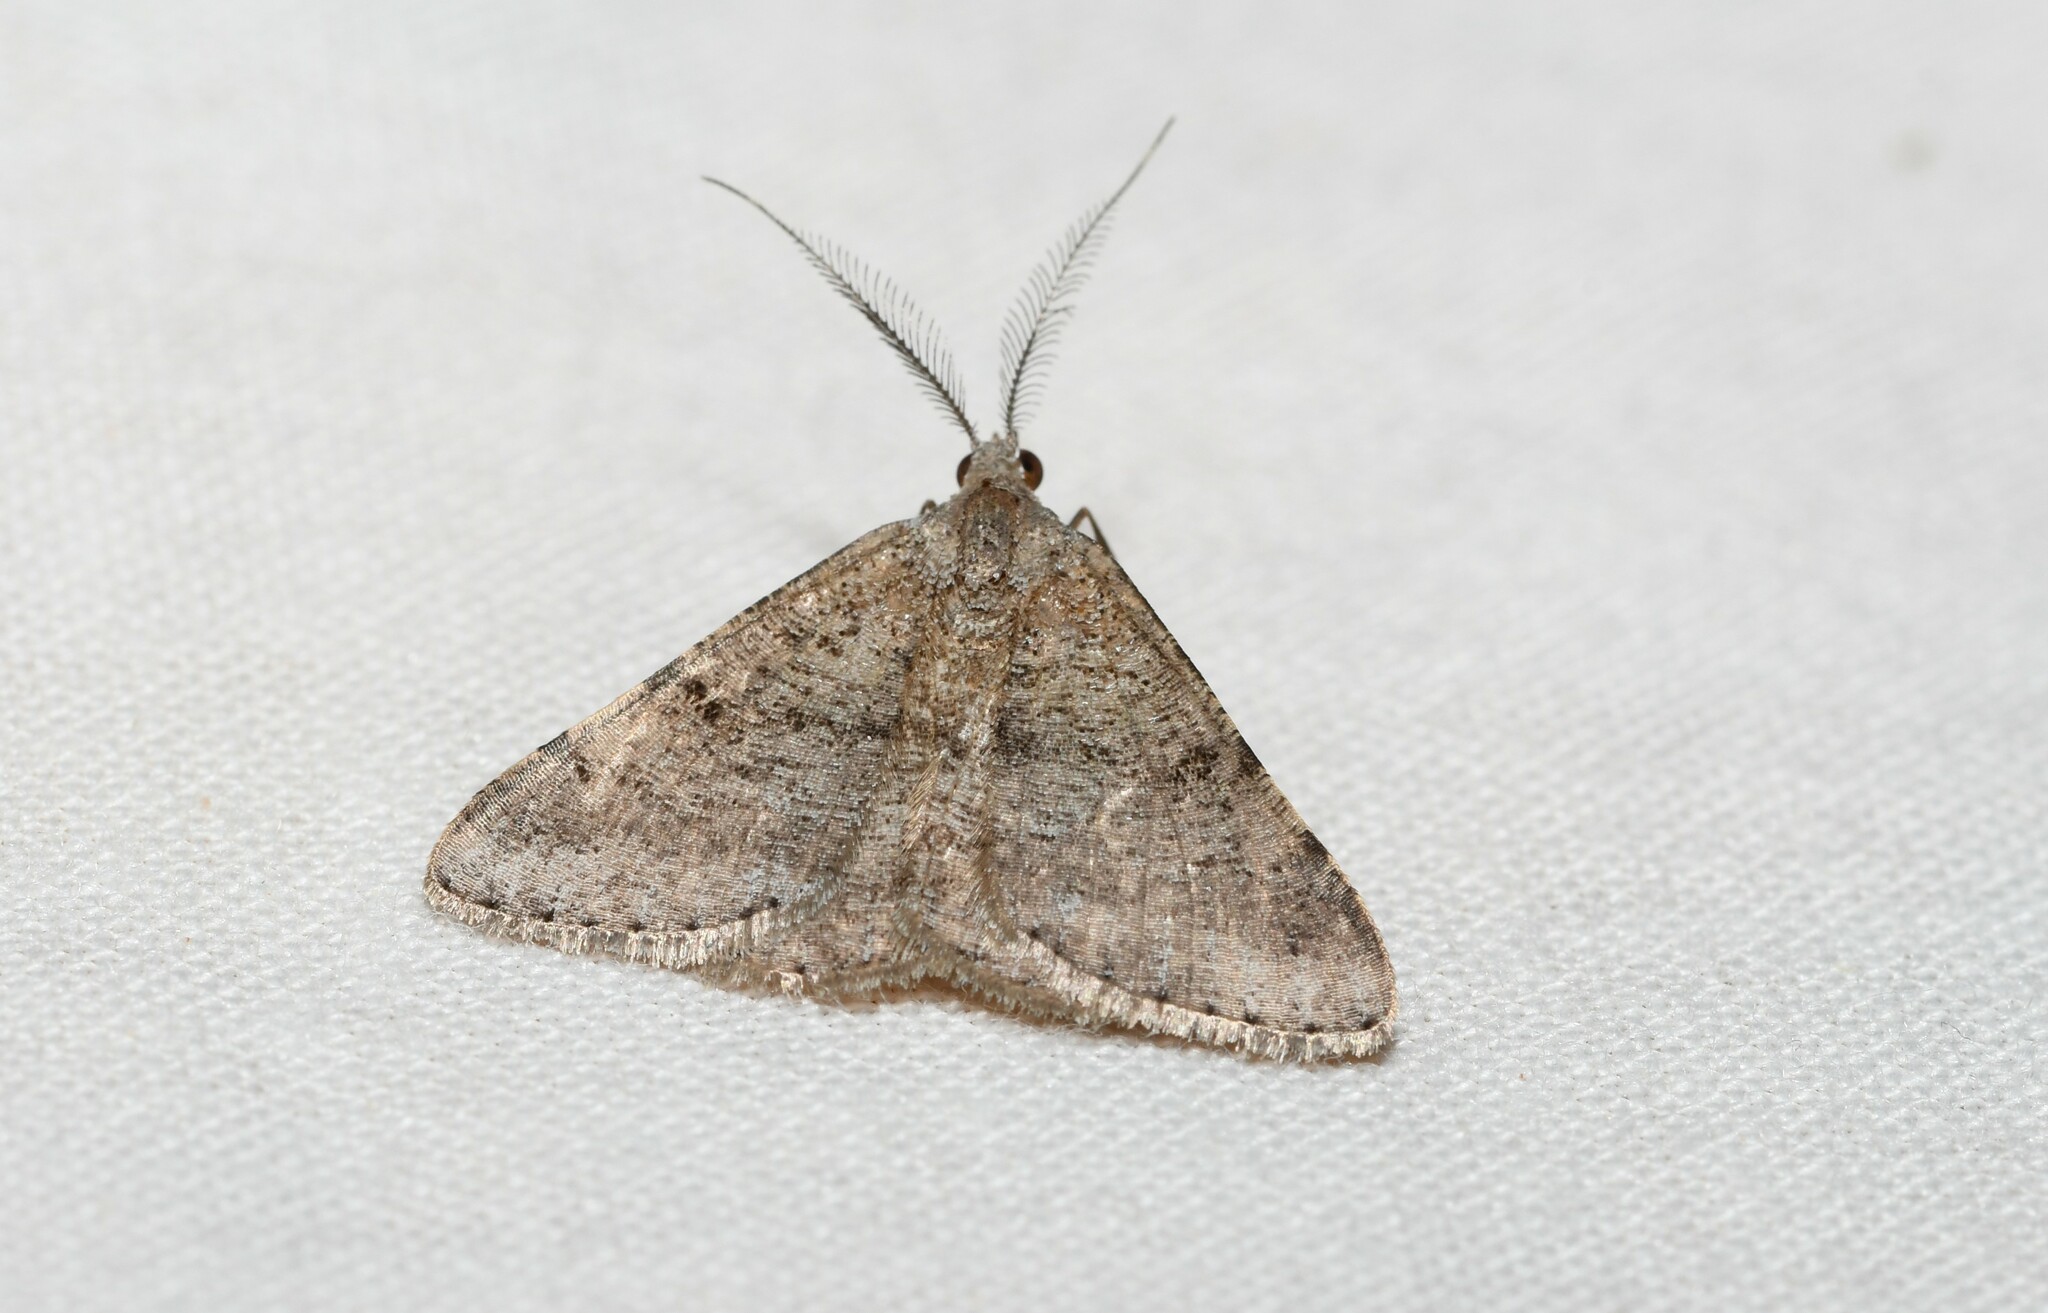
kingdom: Animalia
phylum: Arthropoda
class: Insecta
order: Lepidoptera
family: Geometridae
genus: Acanthovalva
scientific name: Acanthovalva inconspicuaria
